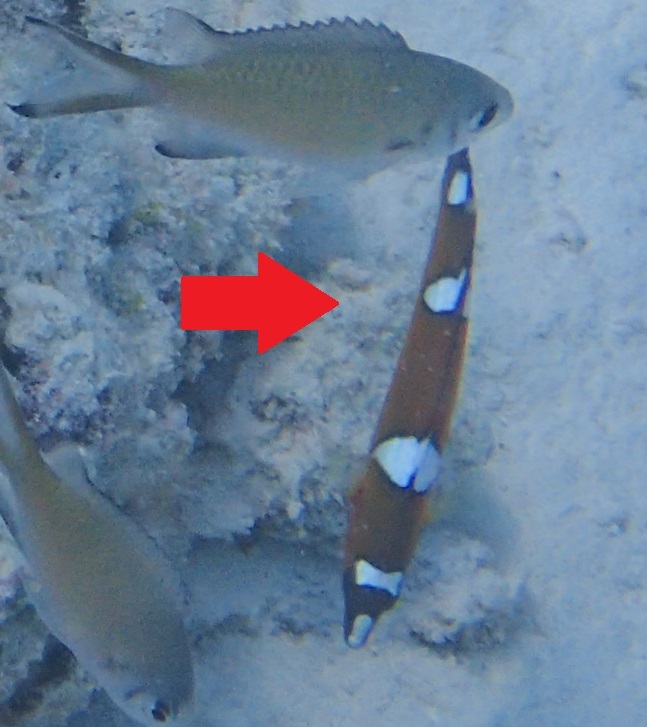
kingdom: Animalia
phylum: Chordata
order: Perciformes
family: Labridae
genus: Coris
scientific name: Coris cuvieri
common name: African coris
